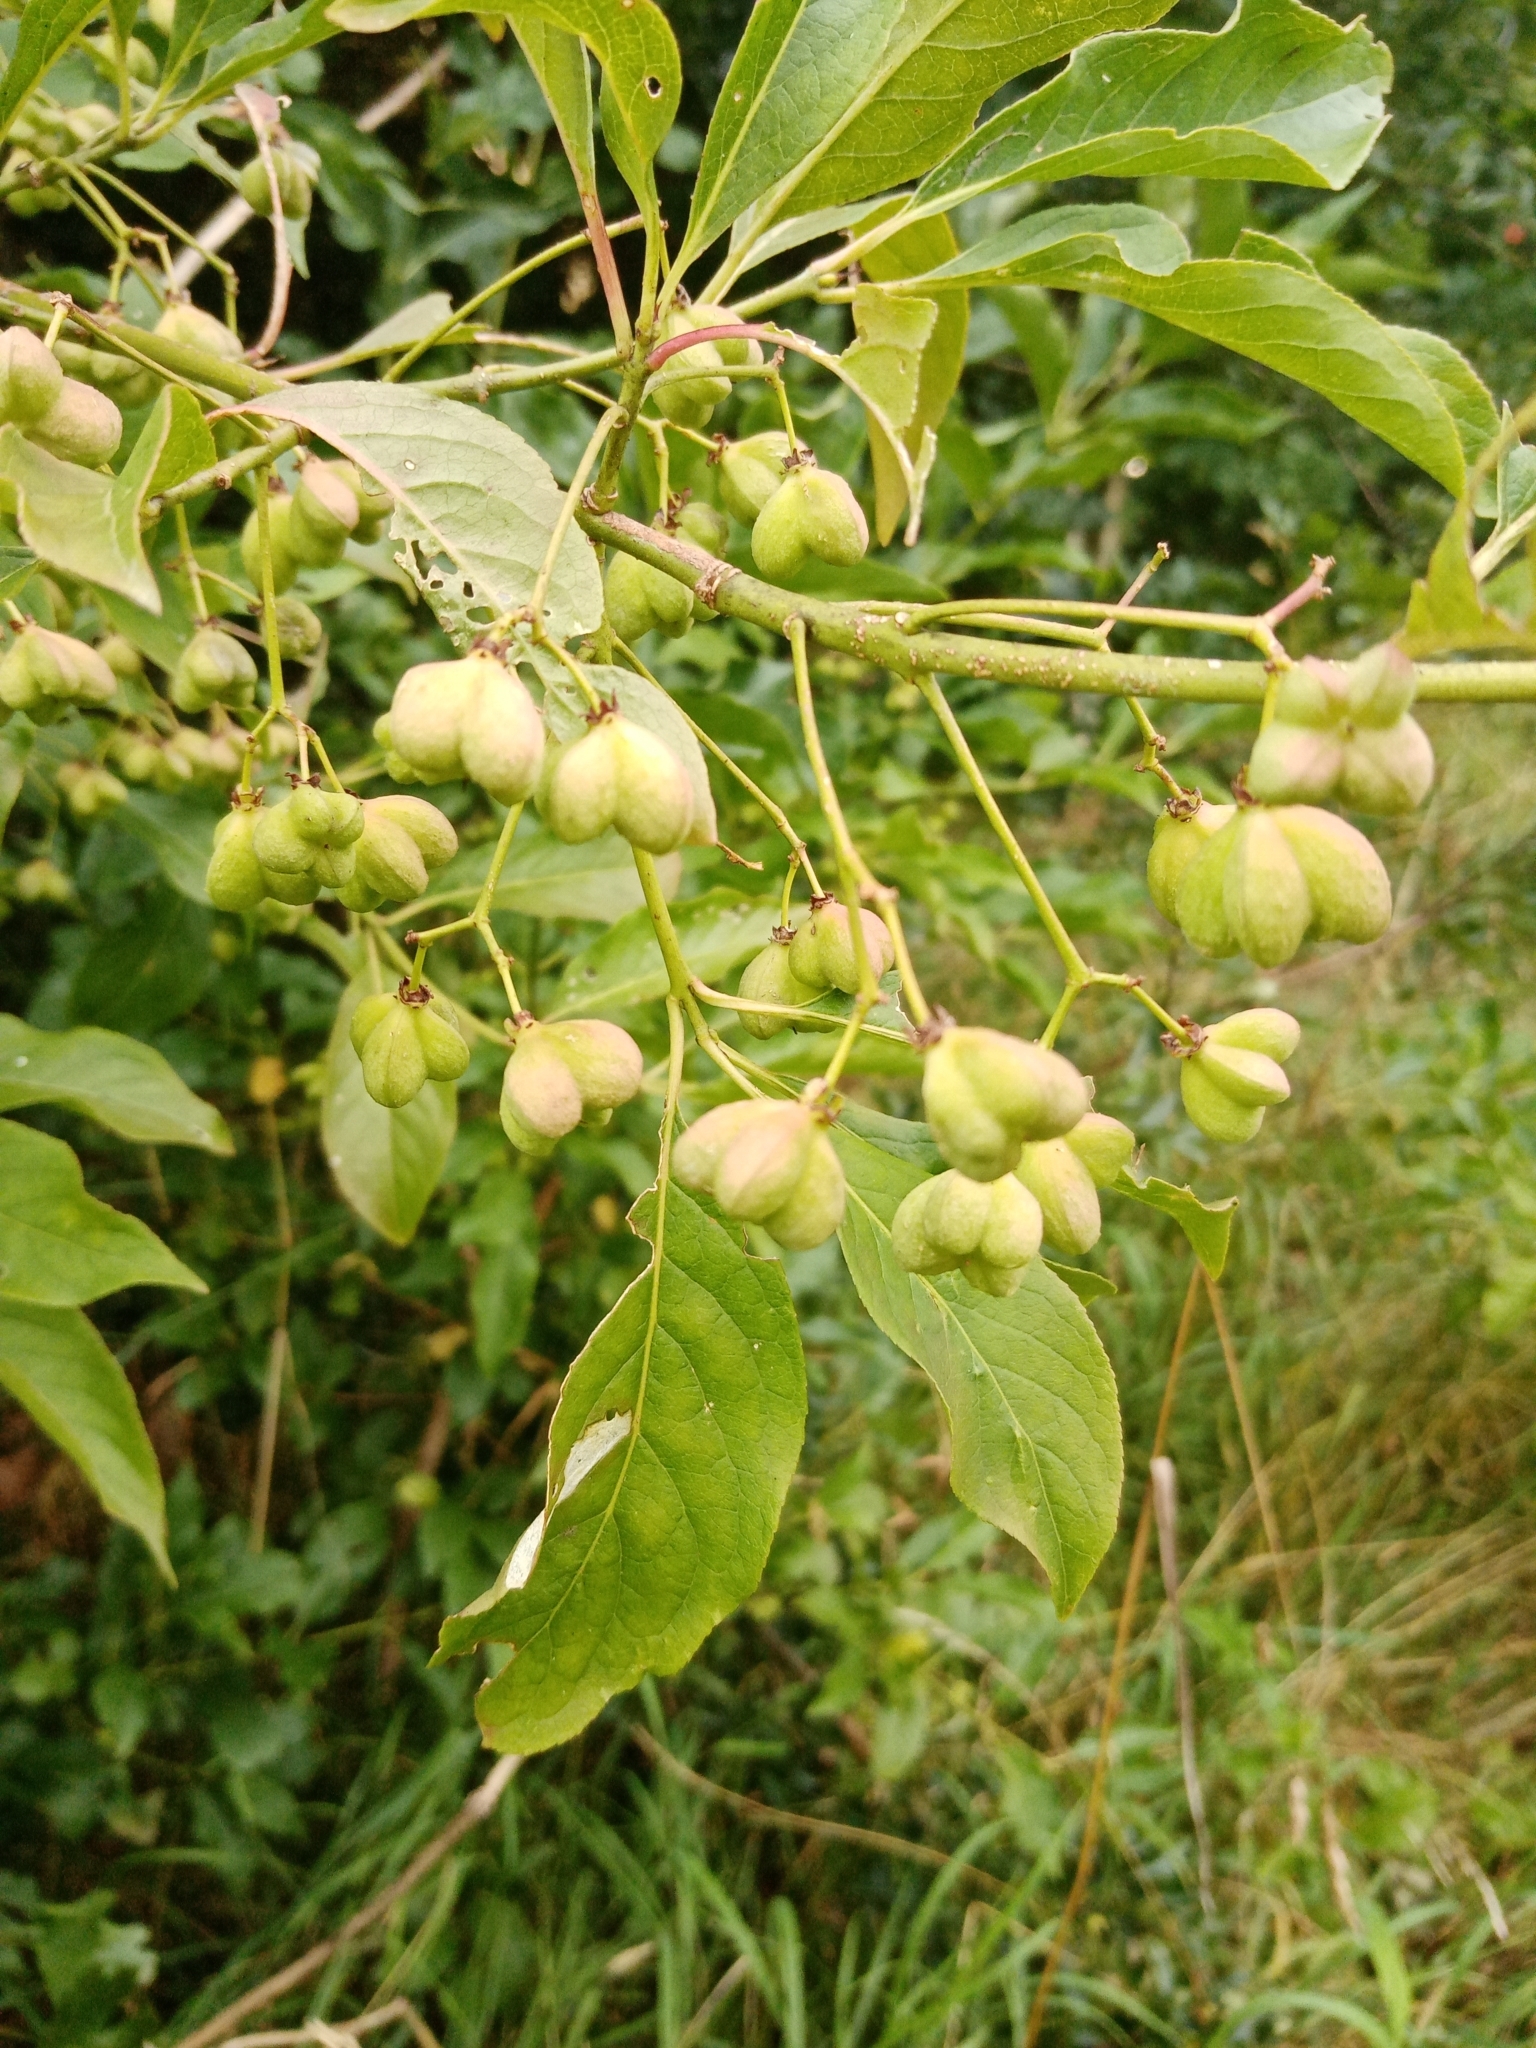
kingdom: Plantae
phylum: Tracheophyta
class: Magnoliopsida
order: Celastrales
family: Celastraceae
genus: Euonymus
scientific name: Euonymus europaeus
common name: Spindle
